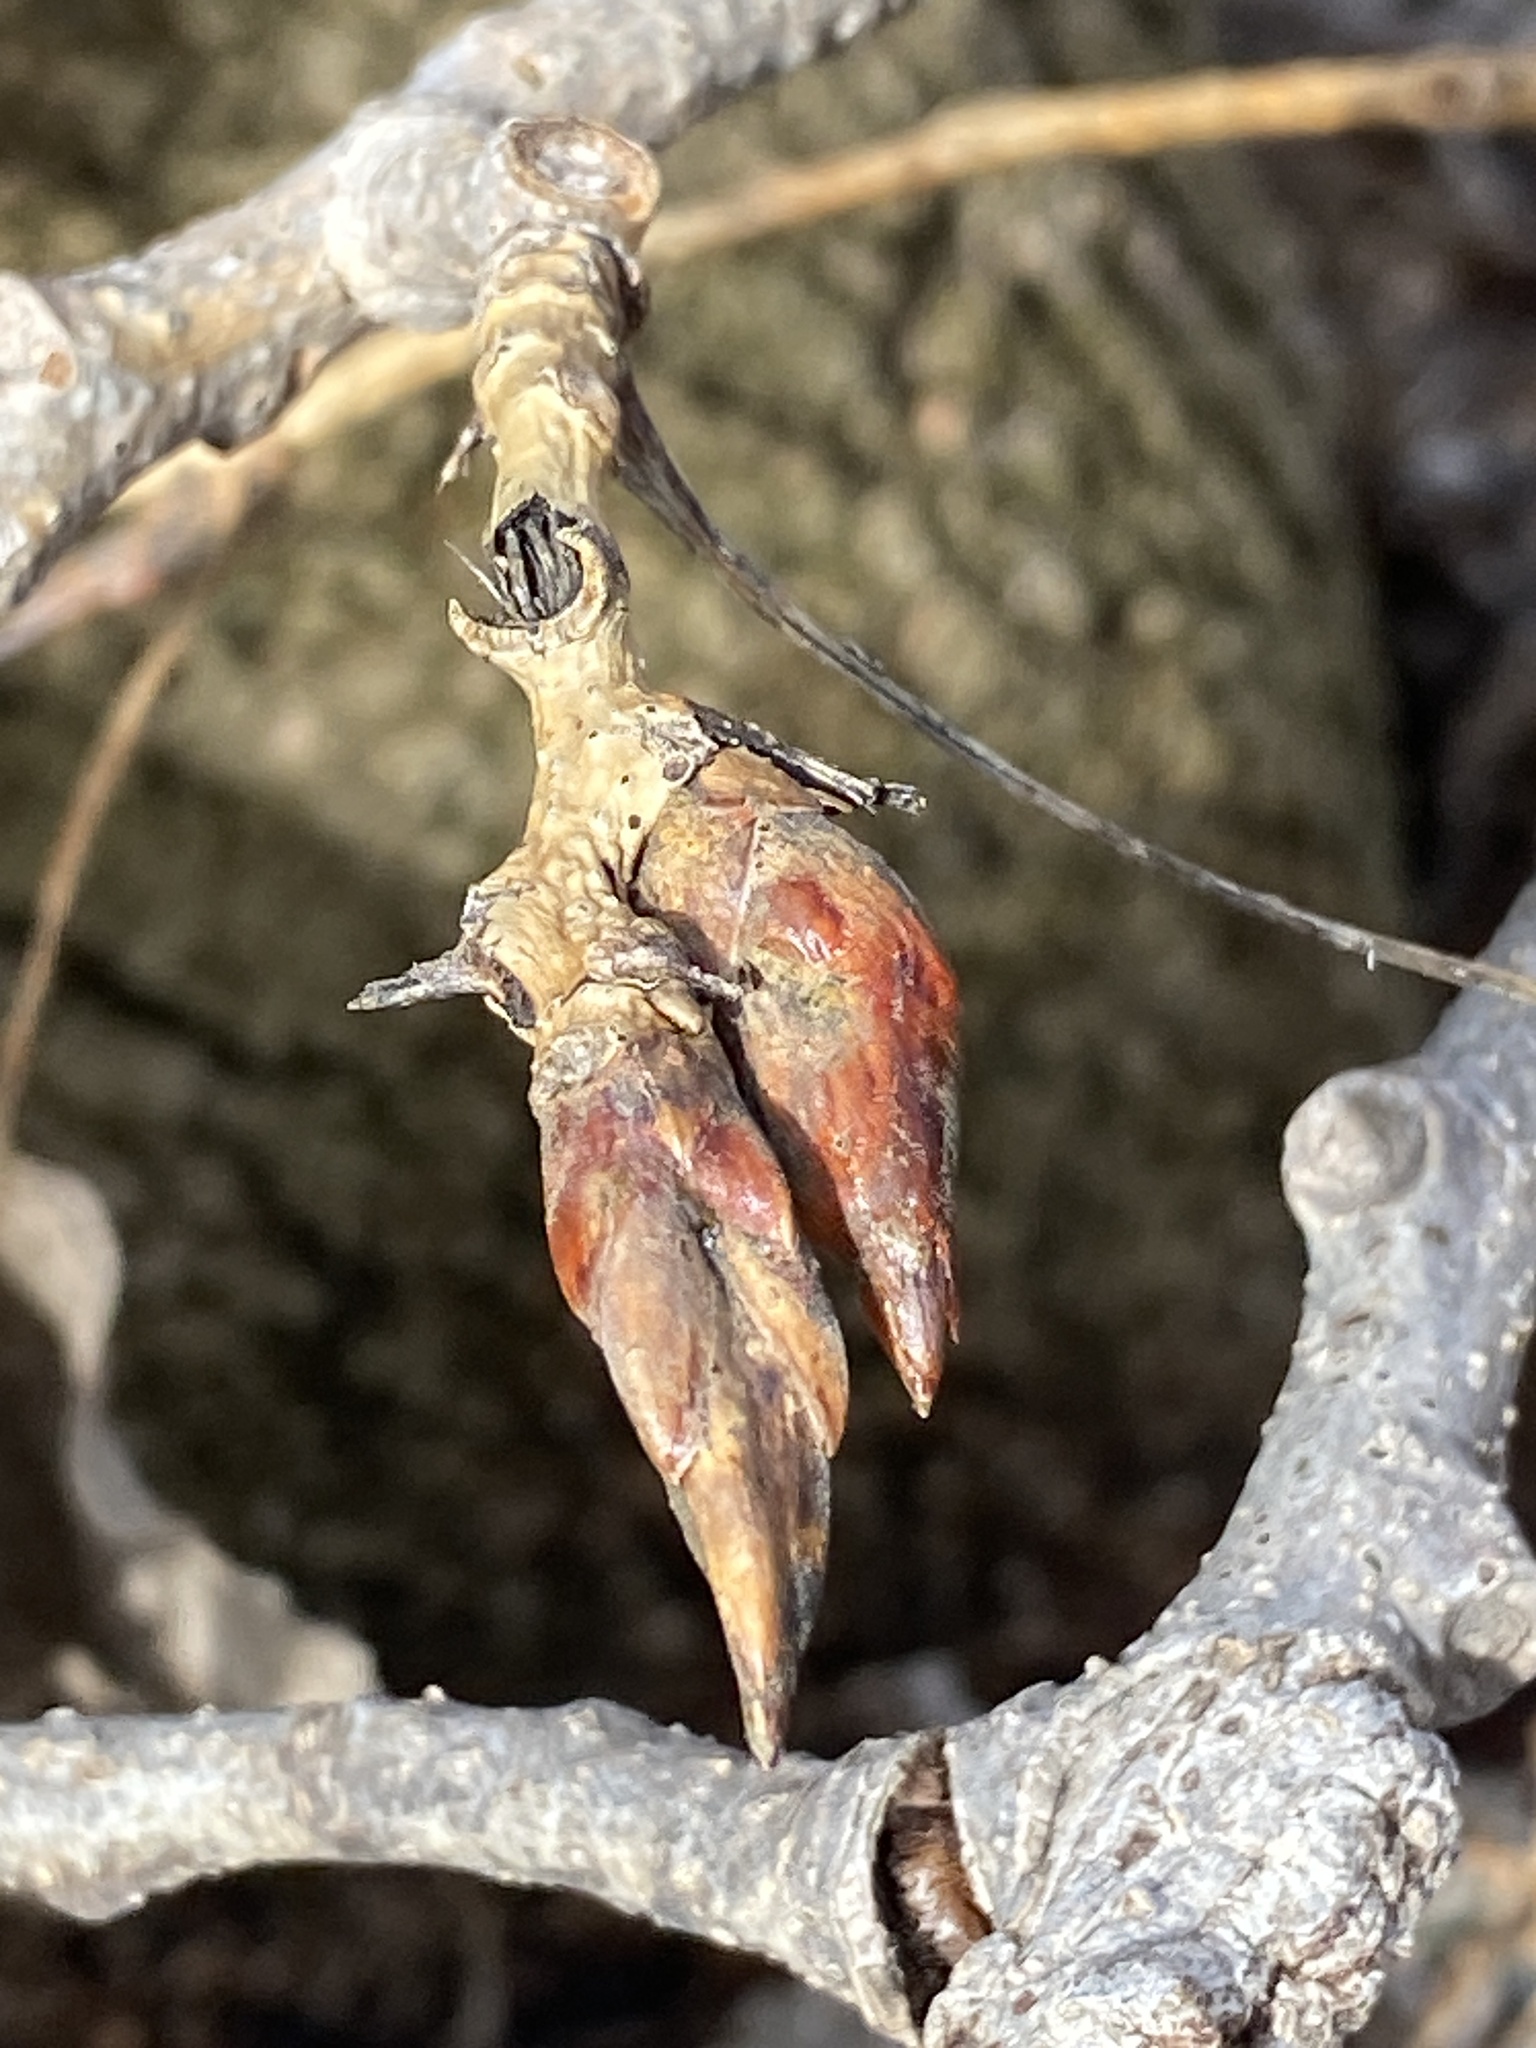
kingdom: Plantae
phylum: Tracheophyta
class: Magnoliopsida
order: Malpighiales
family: Salicaceae
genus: Populus
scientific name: Populus deltoides
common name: Eastern cottonwood
